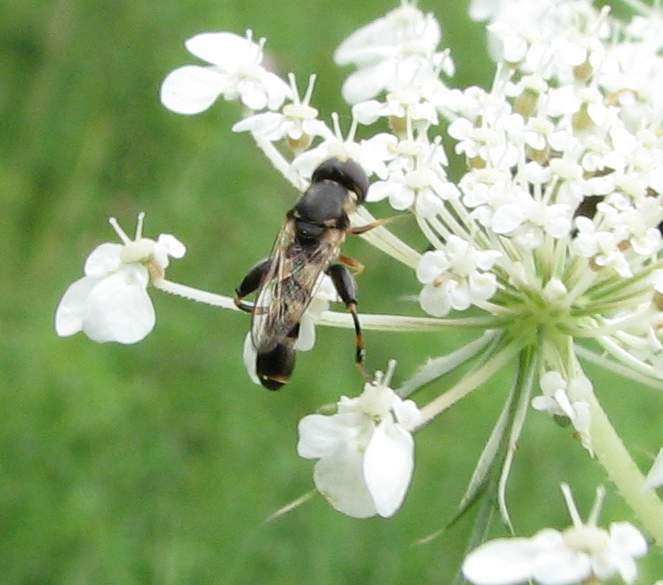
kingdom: Animalia
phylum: Arthropoda
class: Insecta
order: Diptera
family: Syrphidae
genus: Syritta
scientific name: Syritta pipiens
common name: Hover fly
